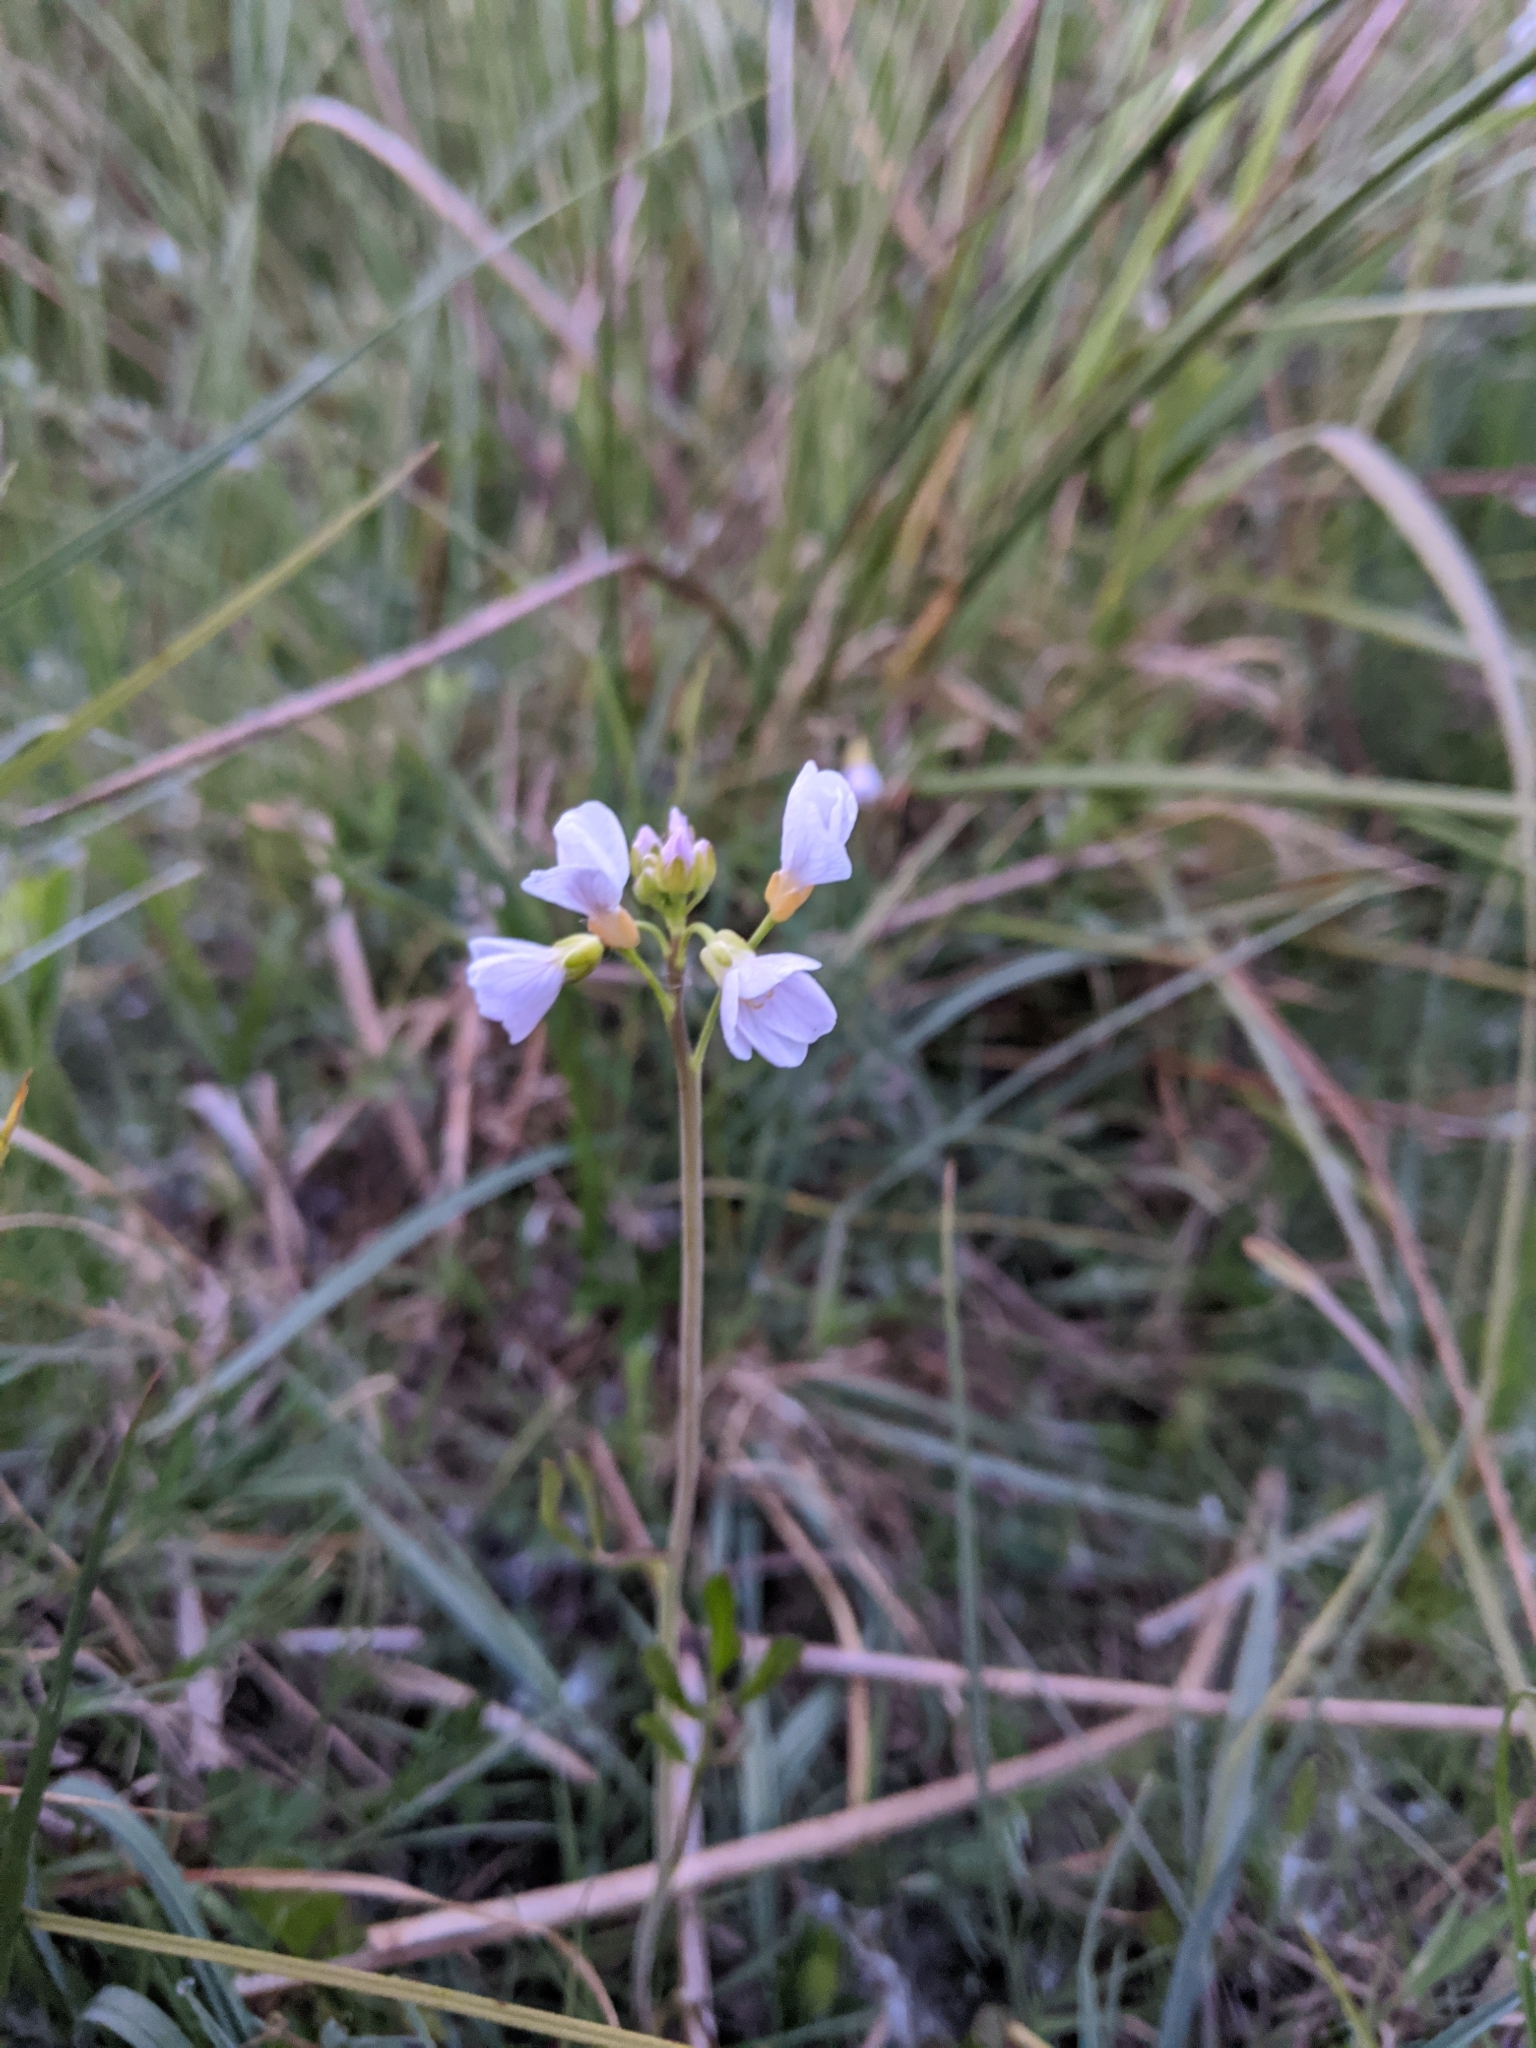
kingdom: Plantae
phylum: Tracheophyta
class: Magnoliopsida
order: Brassicales
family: Brassicaceae
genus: Cardamine
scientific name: Cardamine pratensis
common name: Cuckoo flower
